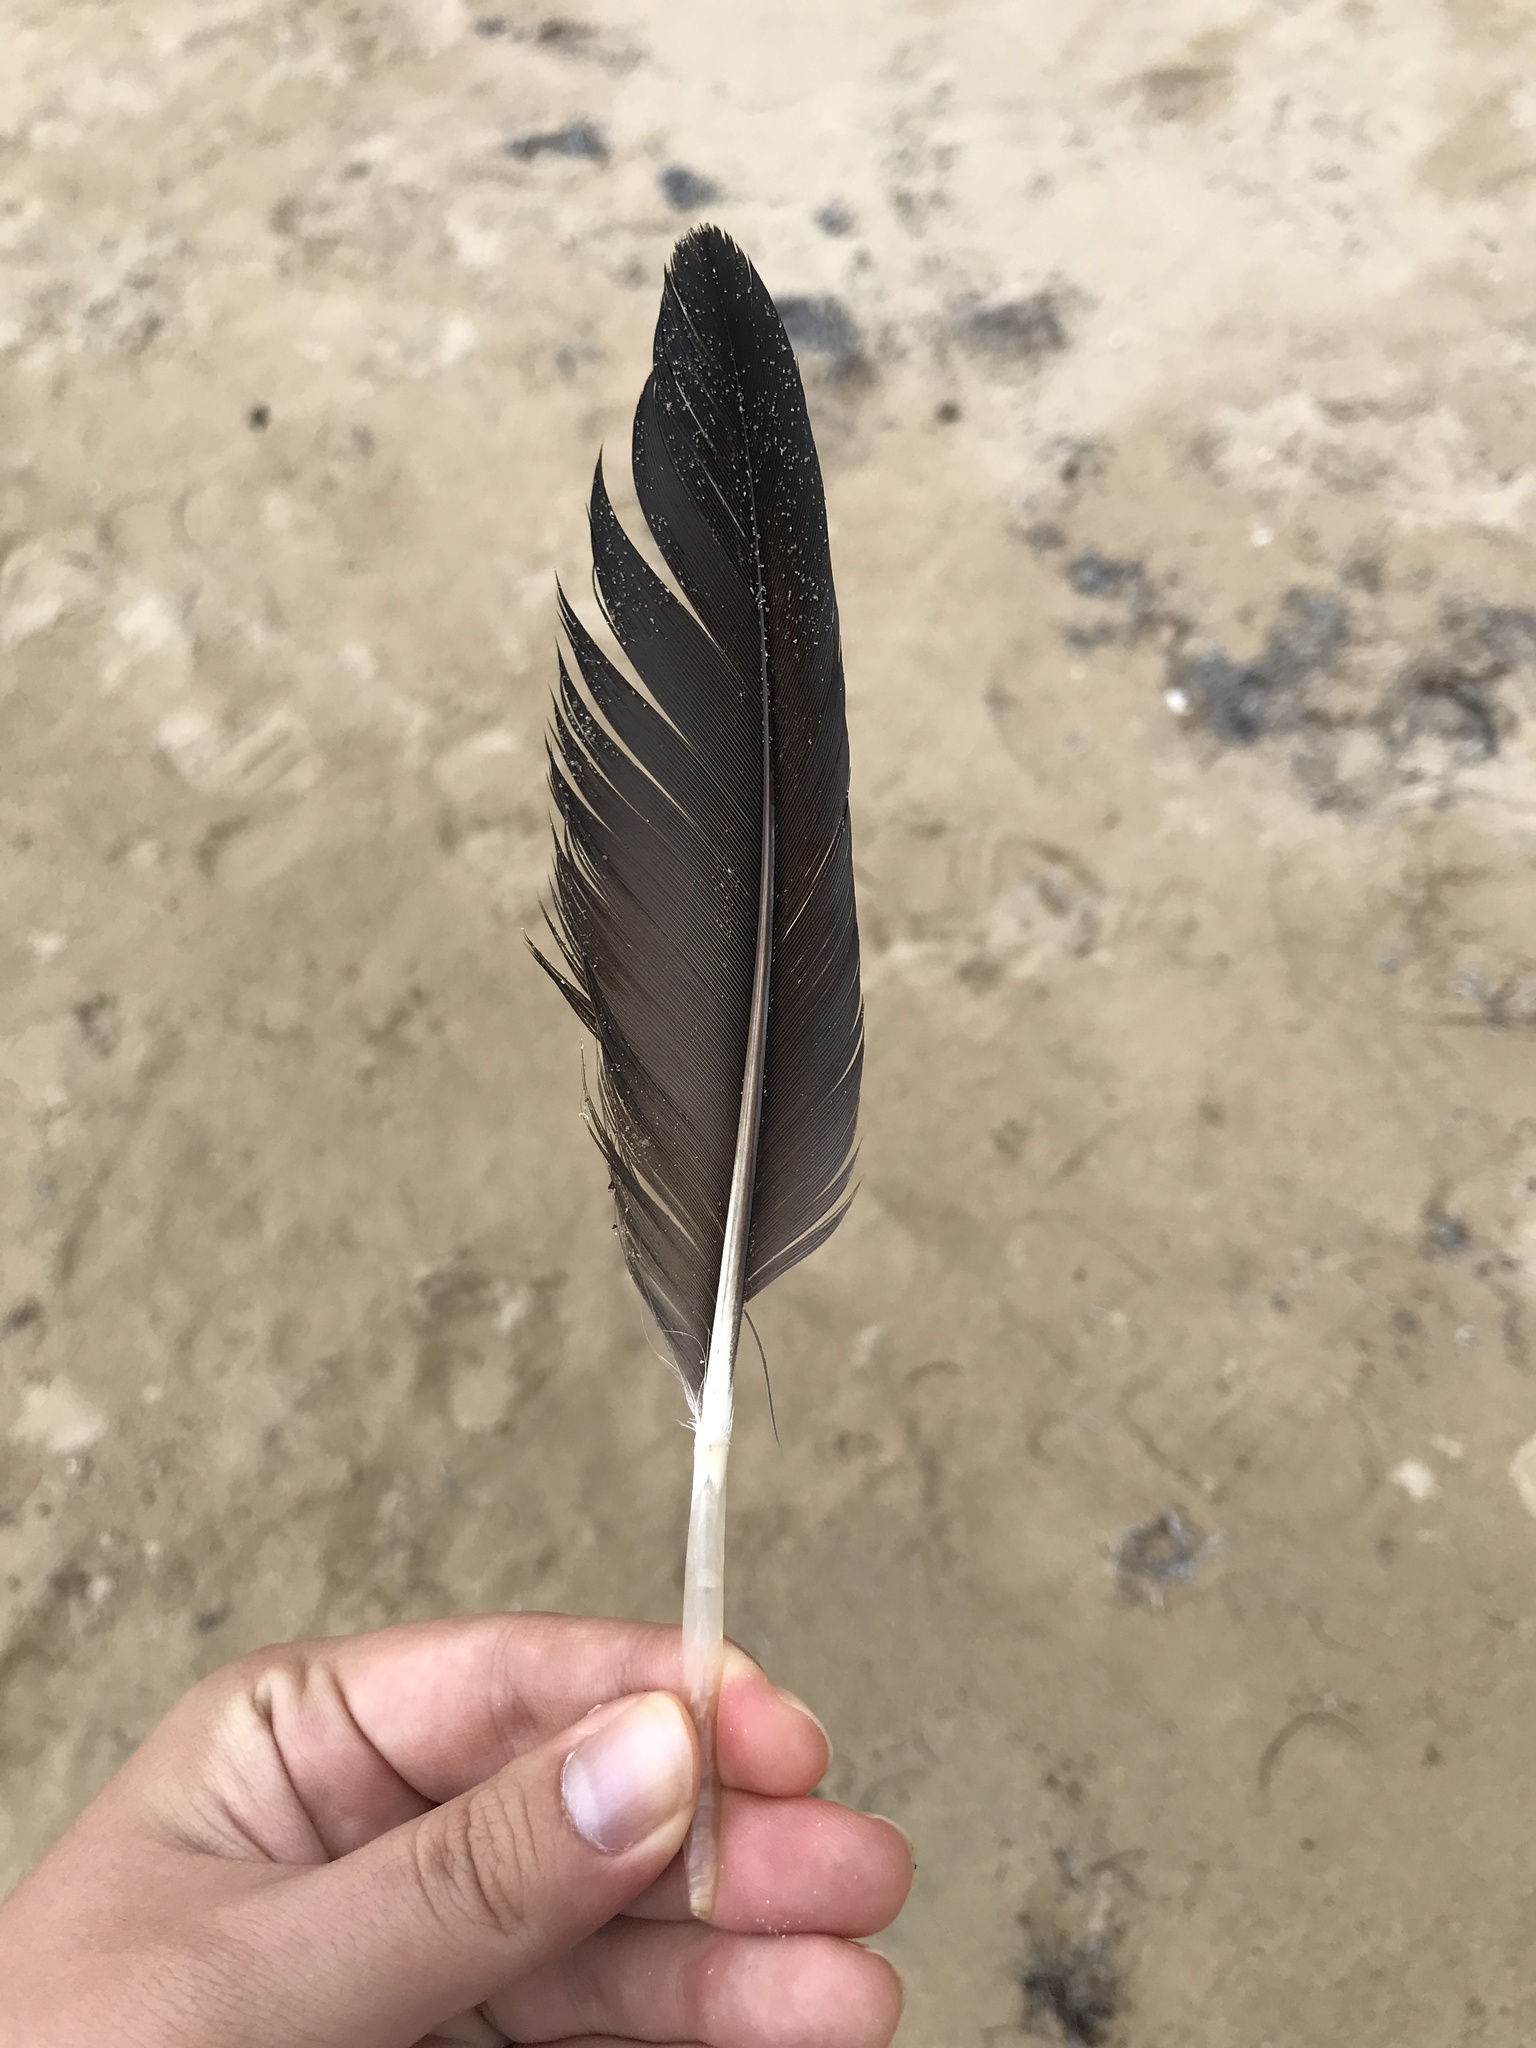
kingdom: Animalia
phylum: Chordata
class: Aves
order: Suliformes
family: Fregatidae
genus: Fregata
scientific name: Fregata magnificens
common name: Magnificent frigatebird
